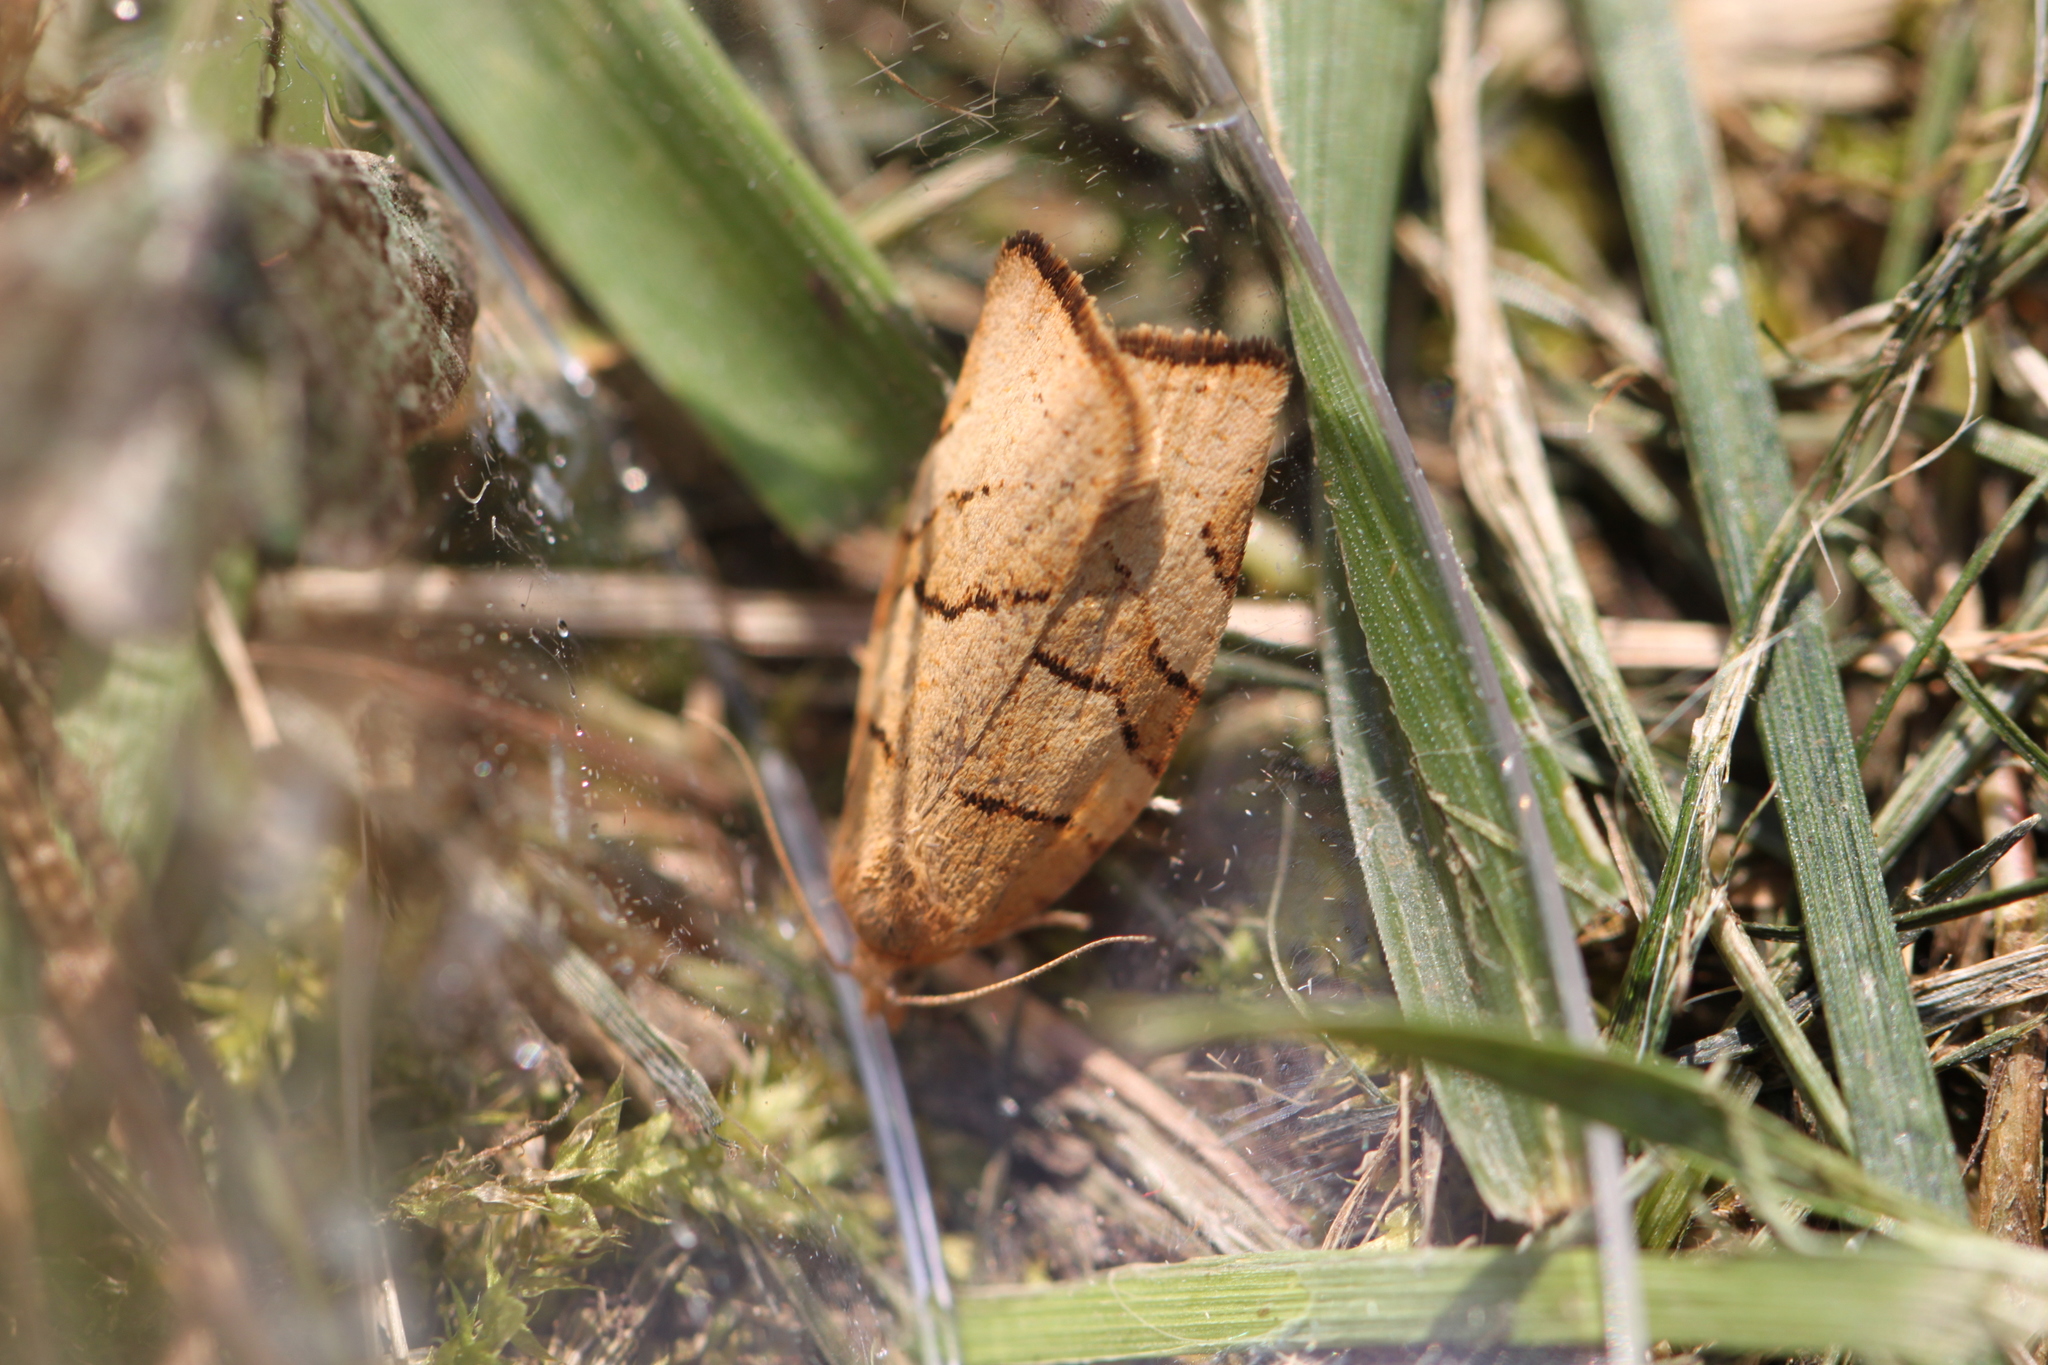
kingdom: Animalia
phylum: Arthropoda
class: Insecta
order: Lepidoptera
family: Tortricidae
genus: Pandemis
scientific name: Pandemis cerasana
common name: Barred fruit-tree tortrix
